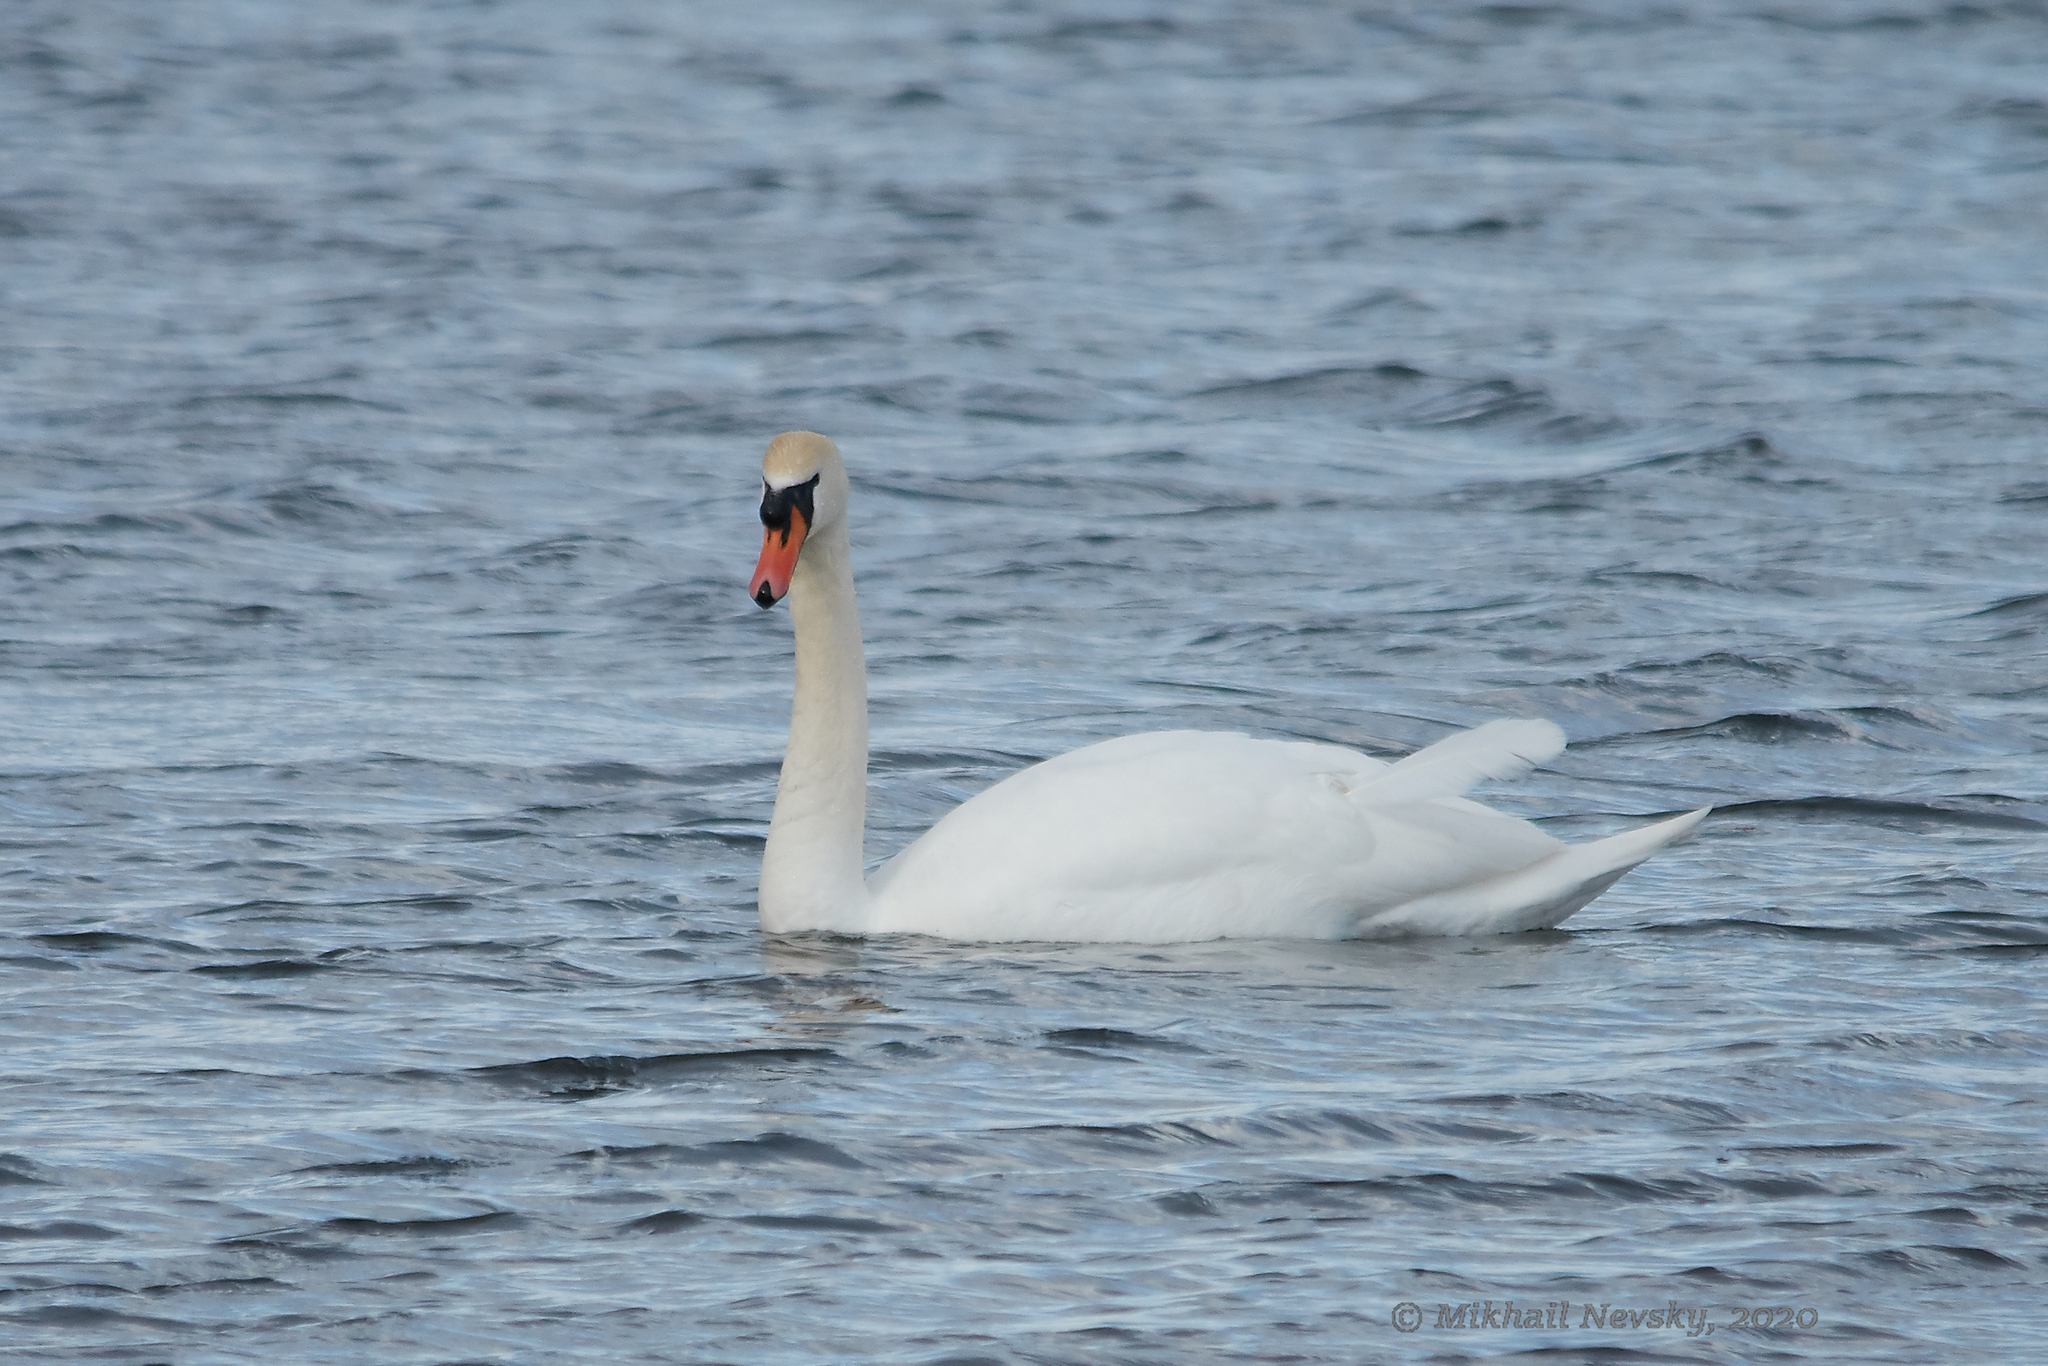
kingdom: Animalia
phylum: Chordata
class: Aves
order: Anseriformes
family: Anatidae
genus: Cygnus
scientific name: Cygnus olor
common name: Mute swan
